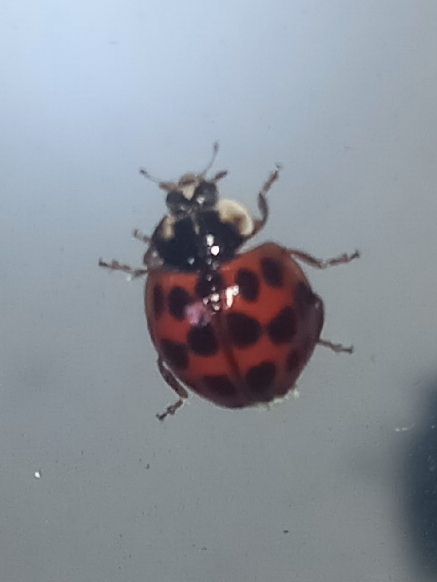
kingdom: Animalia
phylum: Arthropoda
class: Insecta
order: Coleoptera
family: Coccinellidae
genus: Harmonia
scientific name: Harmonia axyridis
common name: Harlequin ladybird
